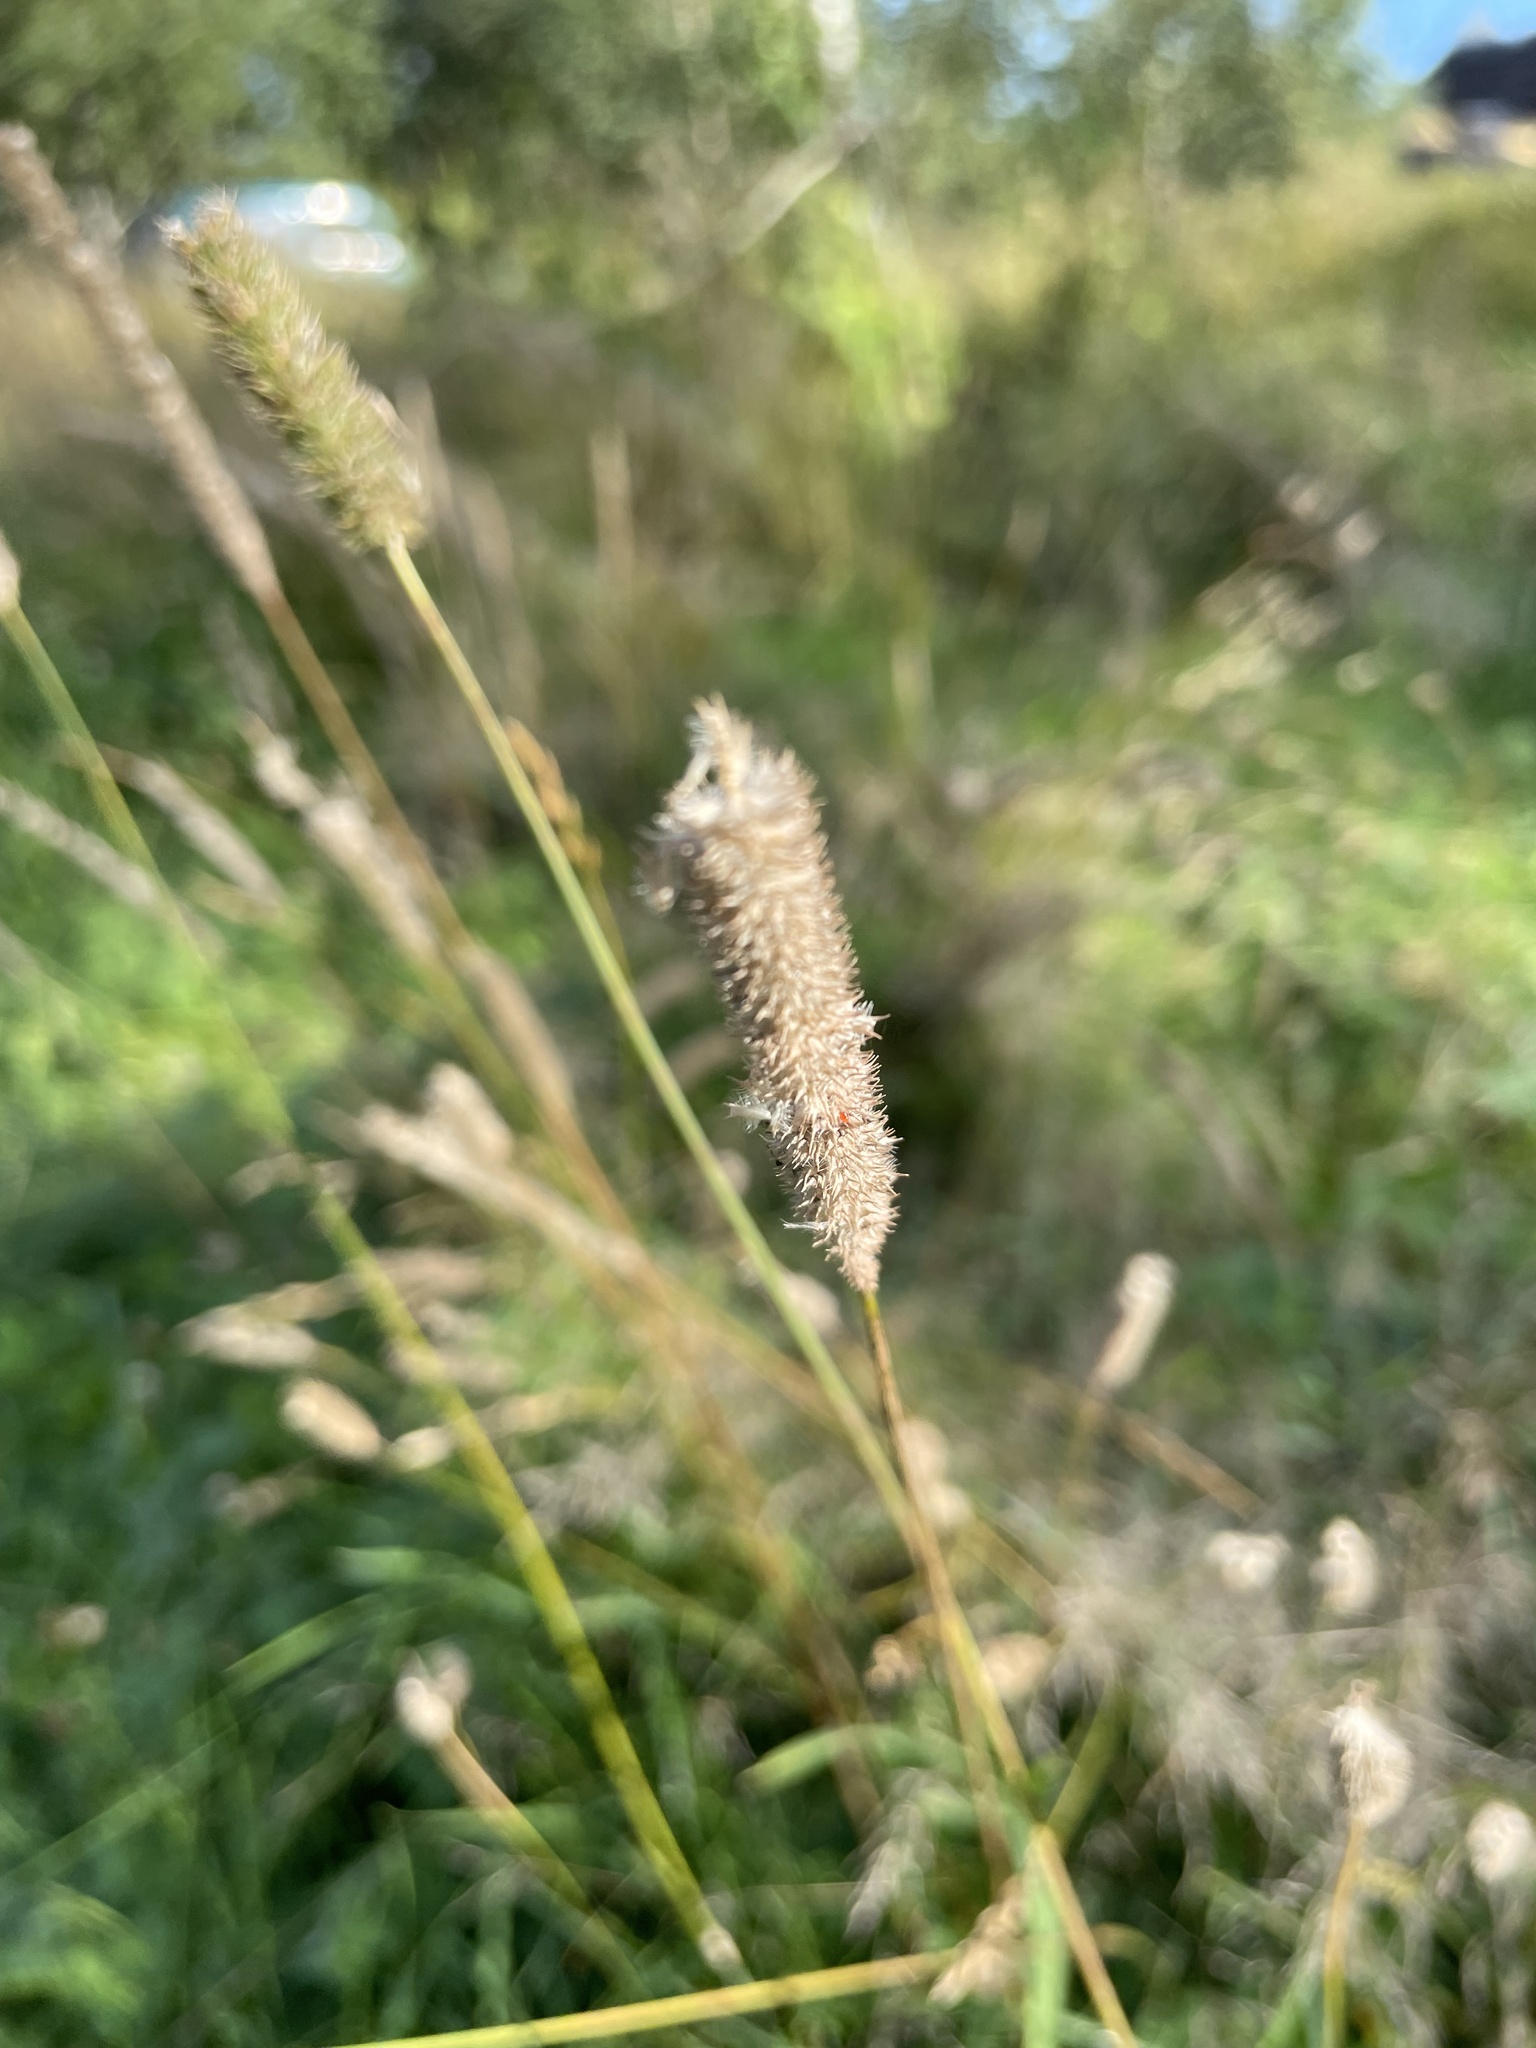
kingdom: Plantae
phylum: Tracheophyta
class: Liliopsida
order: Poales
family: Poaceae
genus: Phleum
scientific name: Phleum pratense
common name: Timothy grass
